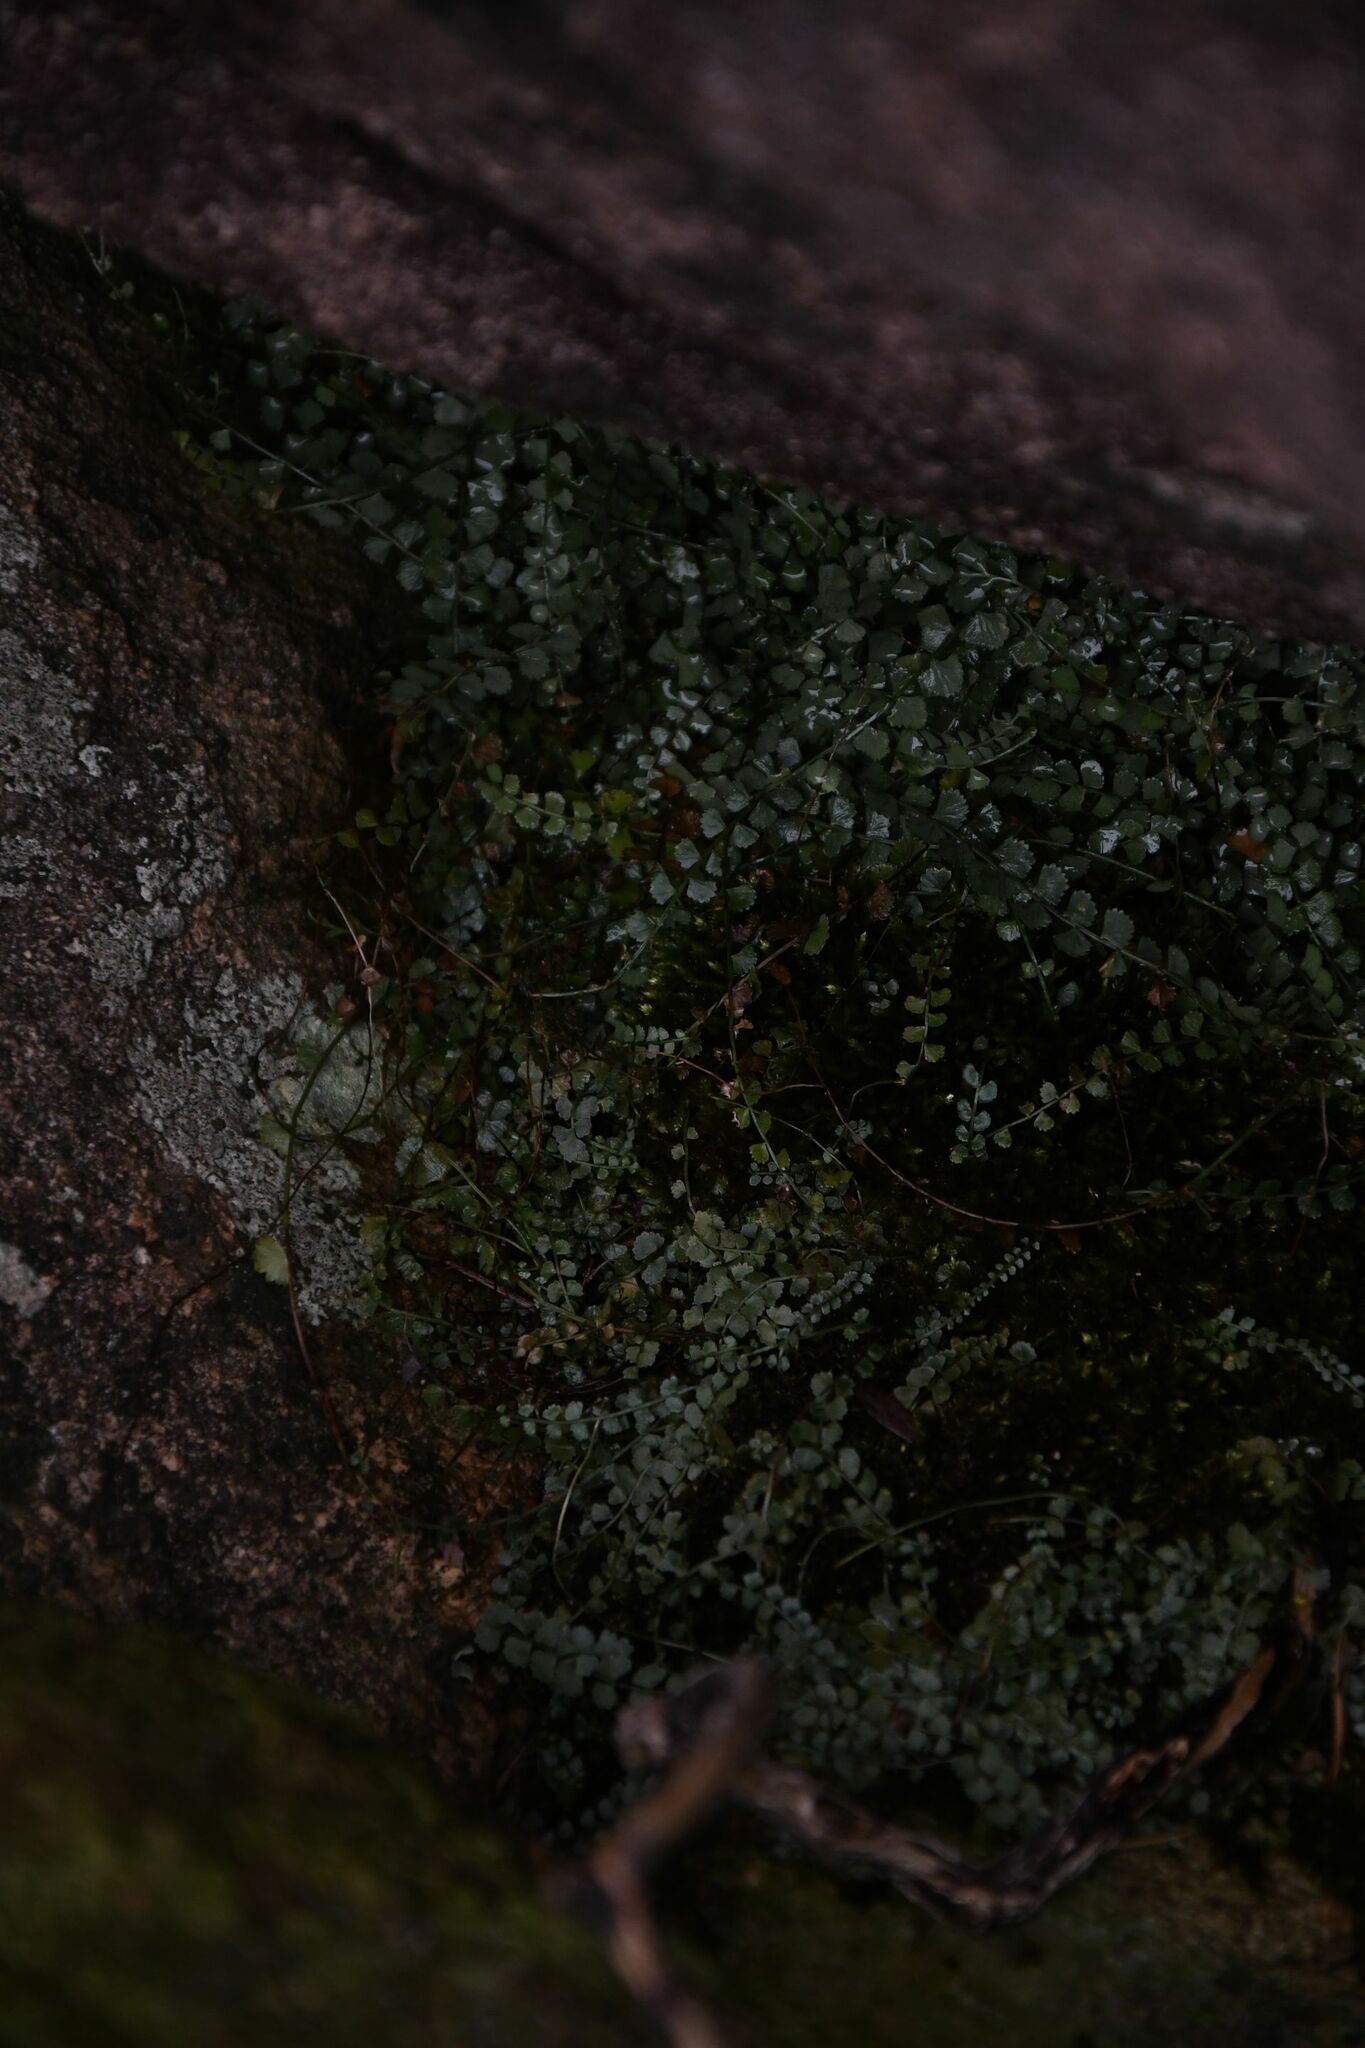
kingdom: Plantae
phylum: Tracheophyta
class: Polypodiopsida
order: Polypodiales
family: Aspleniaceae
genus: Asplenium
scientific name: Asplenium flabellifolium
